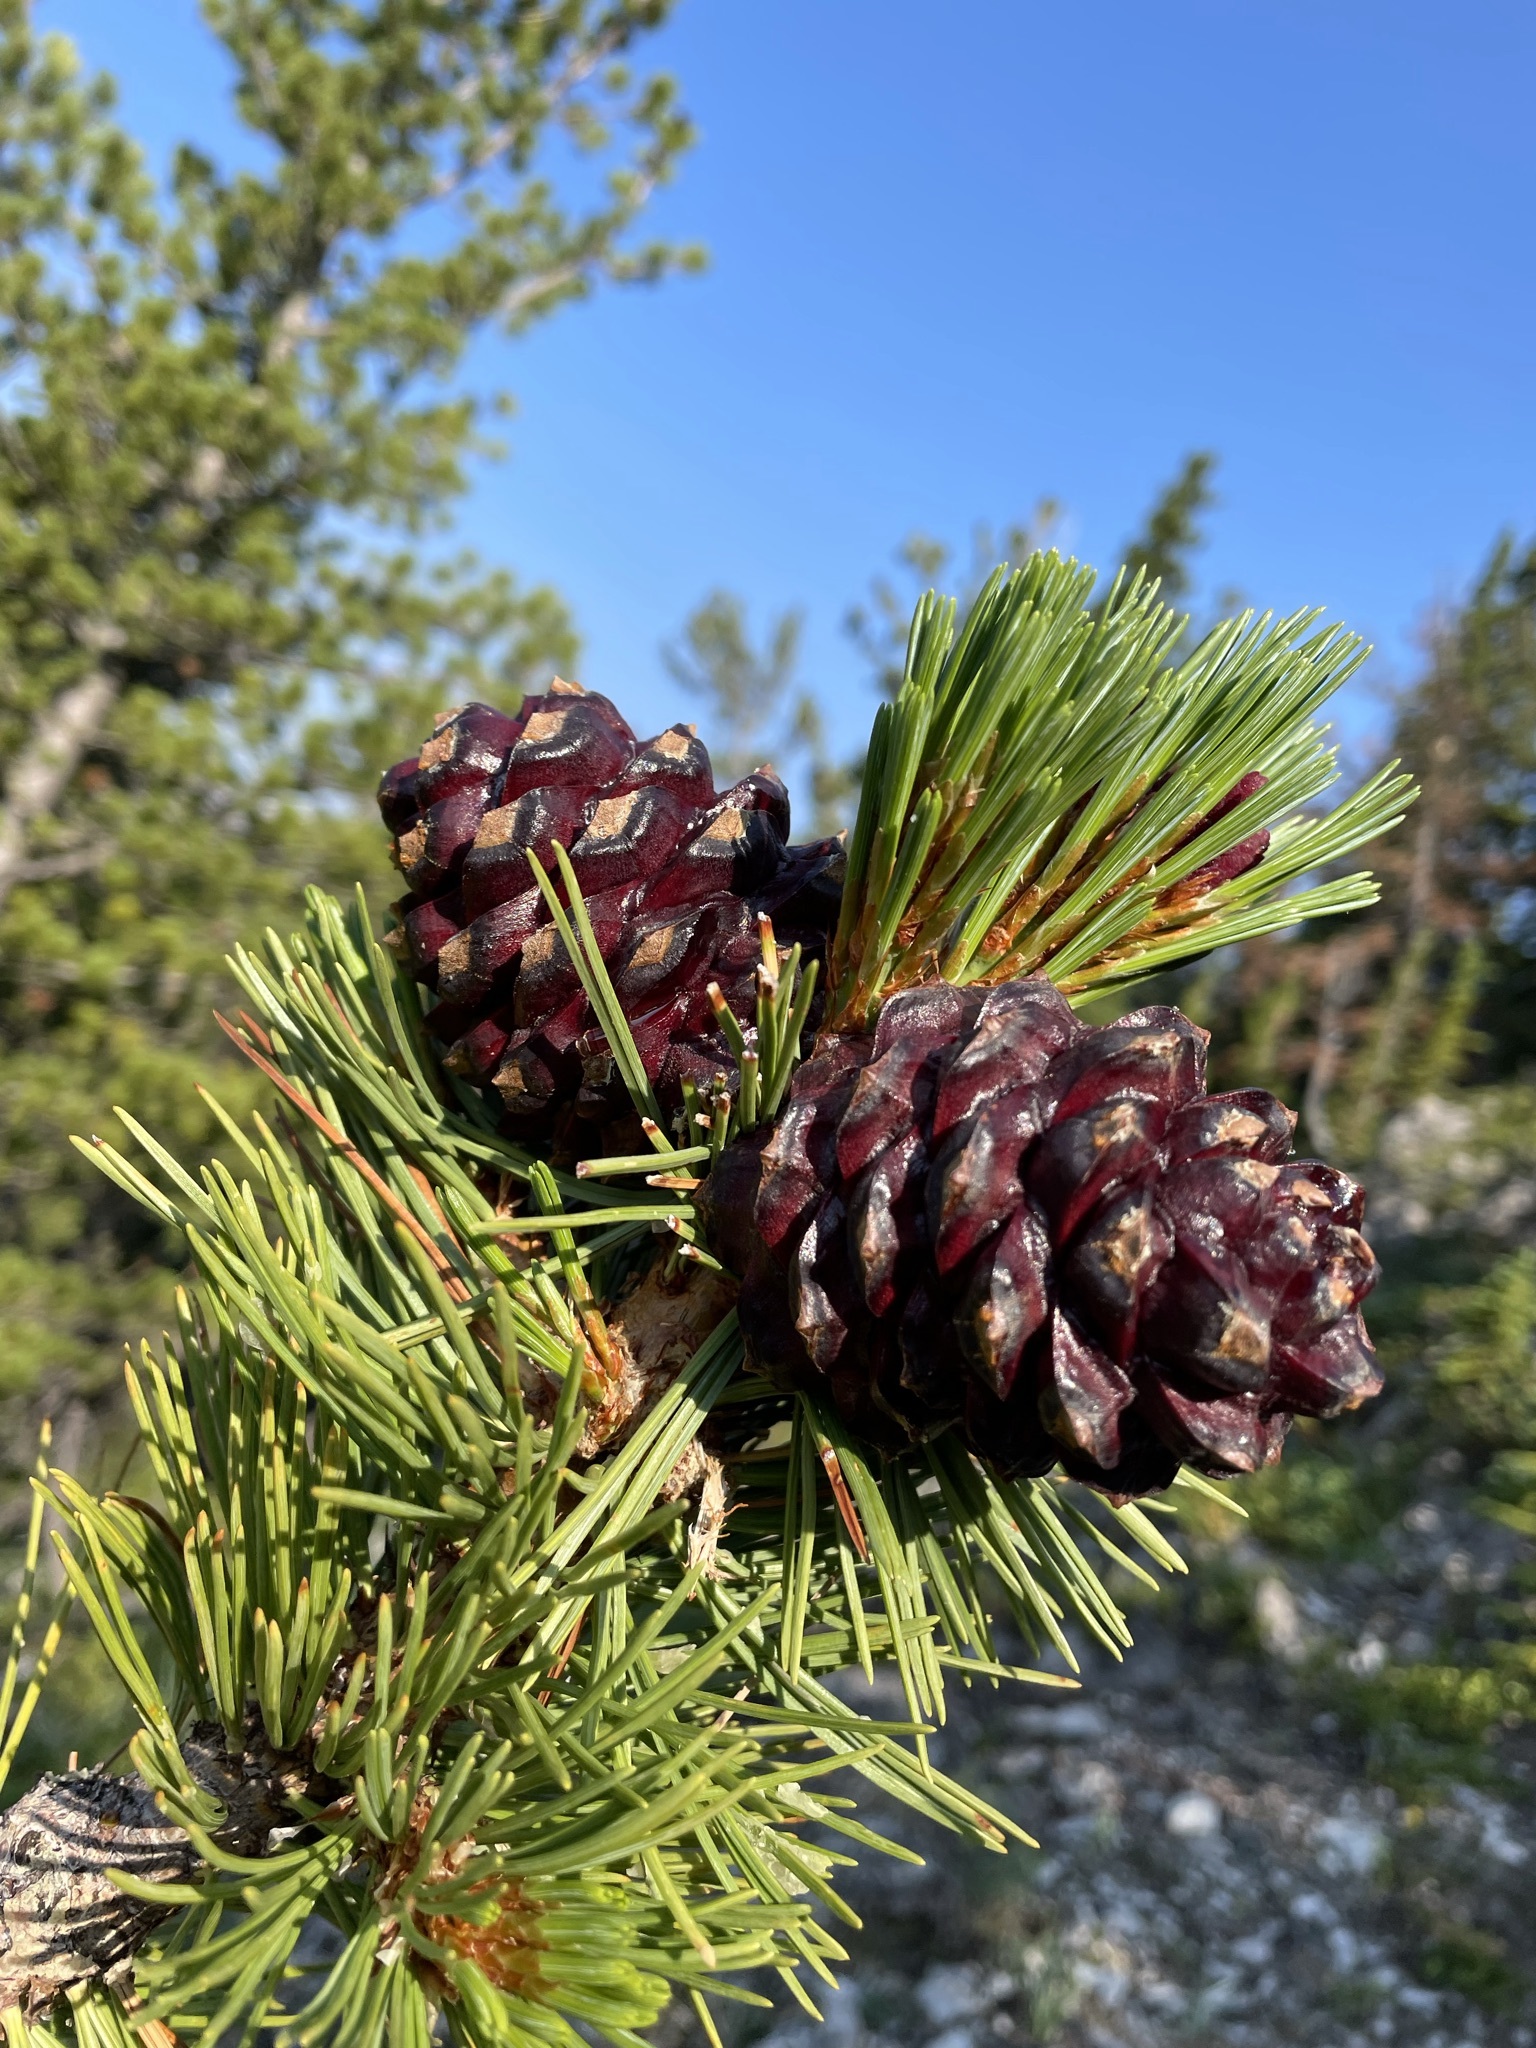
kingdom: Plantae
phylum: Tracheophyta
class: Pinopsida
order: Pinales
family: Pinaceae
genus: Pinus
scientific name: Pinus albicaulis
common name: Whitebark pine
